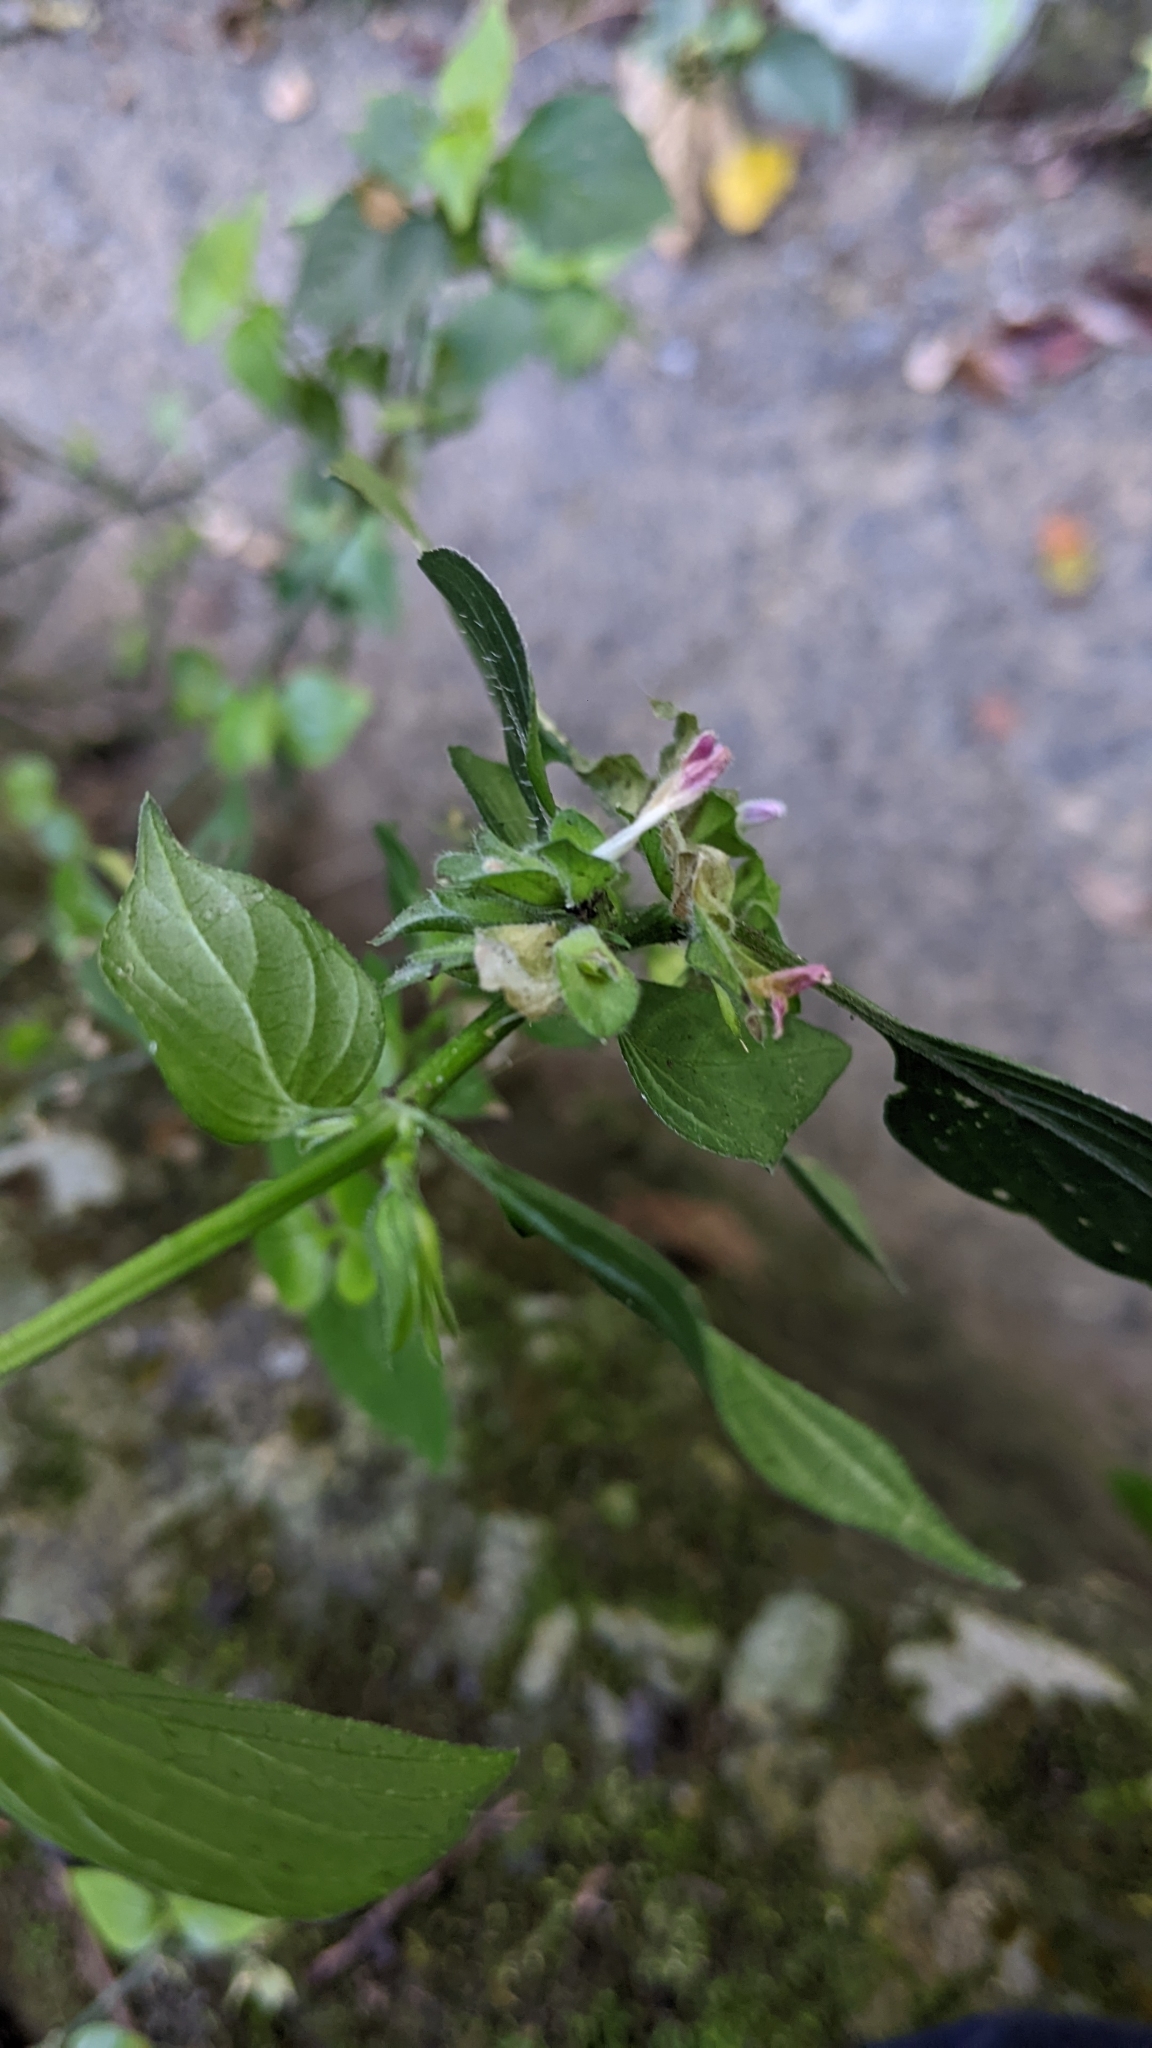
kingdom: Plantae
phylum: Tracheophyta
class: Magnoliopsida
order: Lamiales
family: Acanthaceae
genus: Dicliptera
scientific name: Dicliptera chinensis
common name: Chinese foldwing
